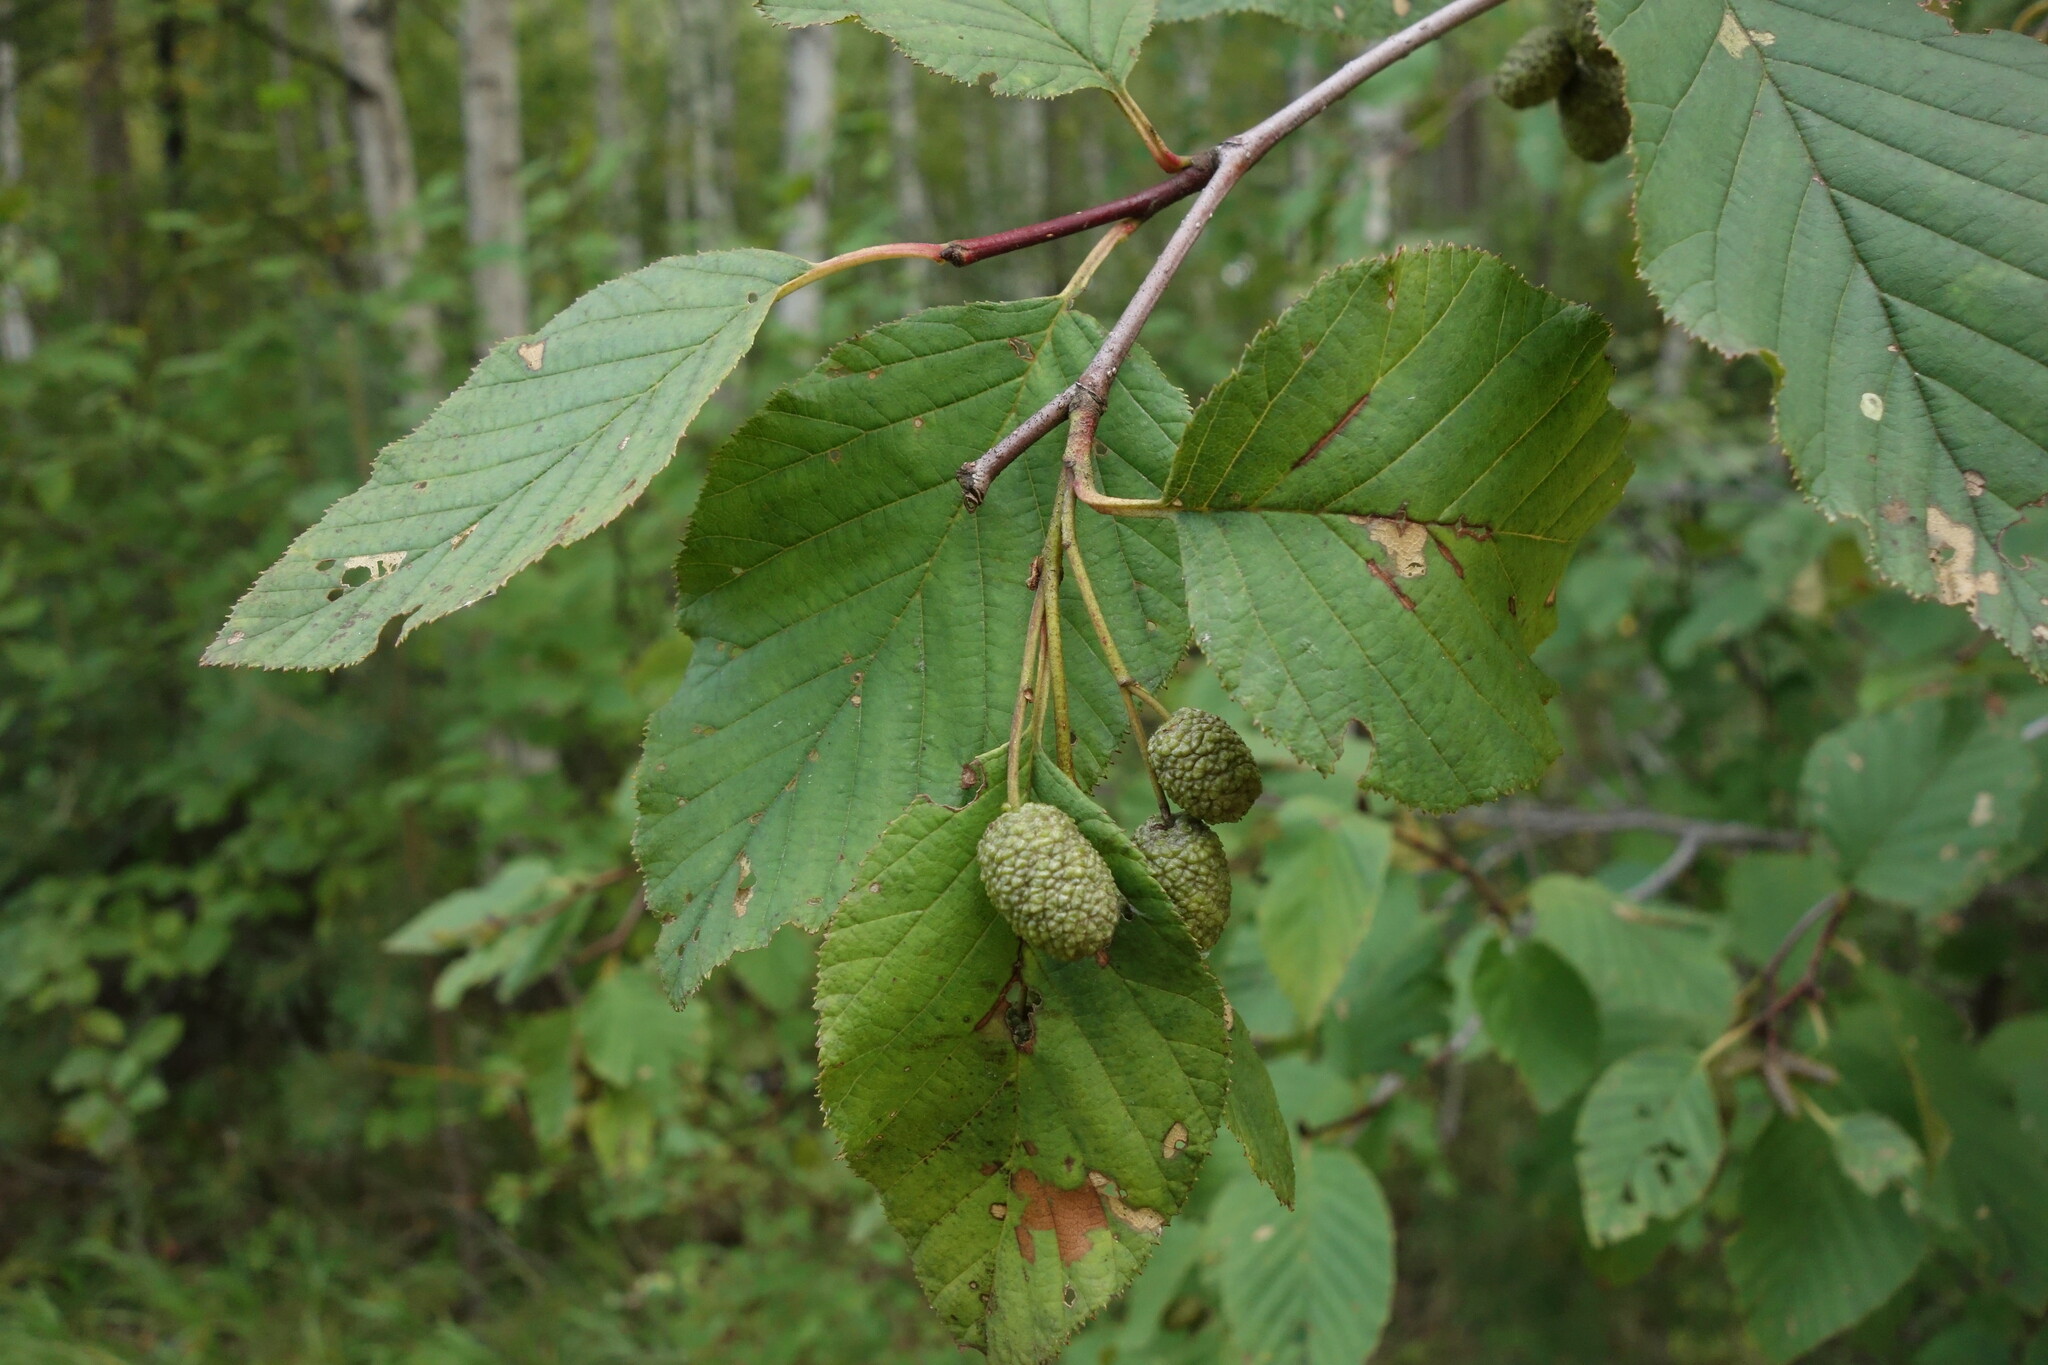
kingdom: Plantae
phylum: Tracheophyta
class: Magnoliopsida
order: Fagales
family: Betulaceae
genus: Alnus
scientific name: Alnus alnobetula
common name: Green alder
